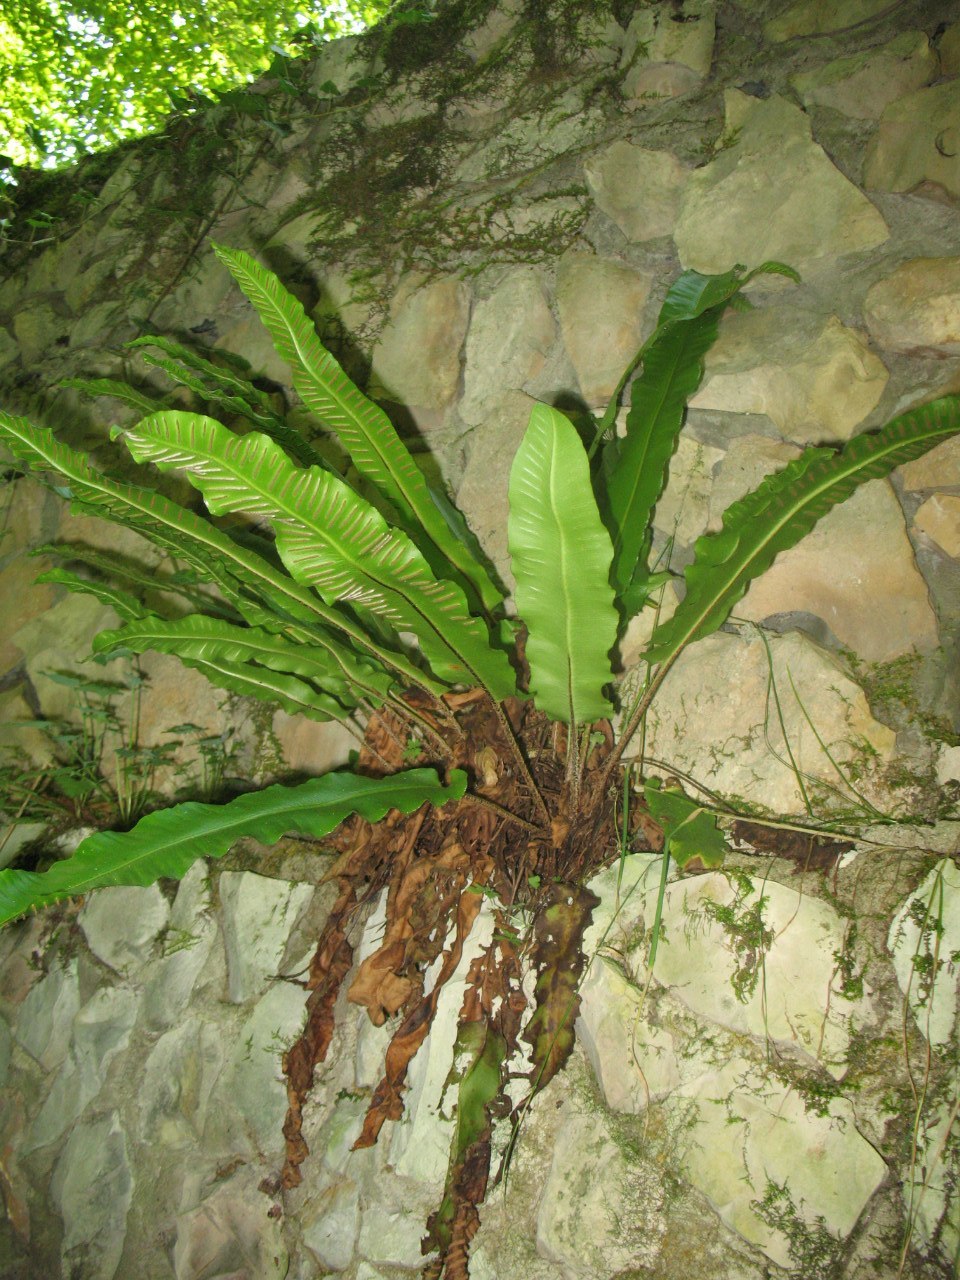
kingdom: Plantae
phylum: Tracheophyta
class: Polypodiopsida
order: Polypodiales
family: Aspleniaceae
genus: Asplenium
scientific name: Asplenium scolopendrium
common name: Hart's-tongue fern
